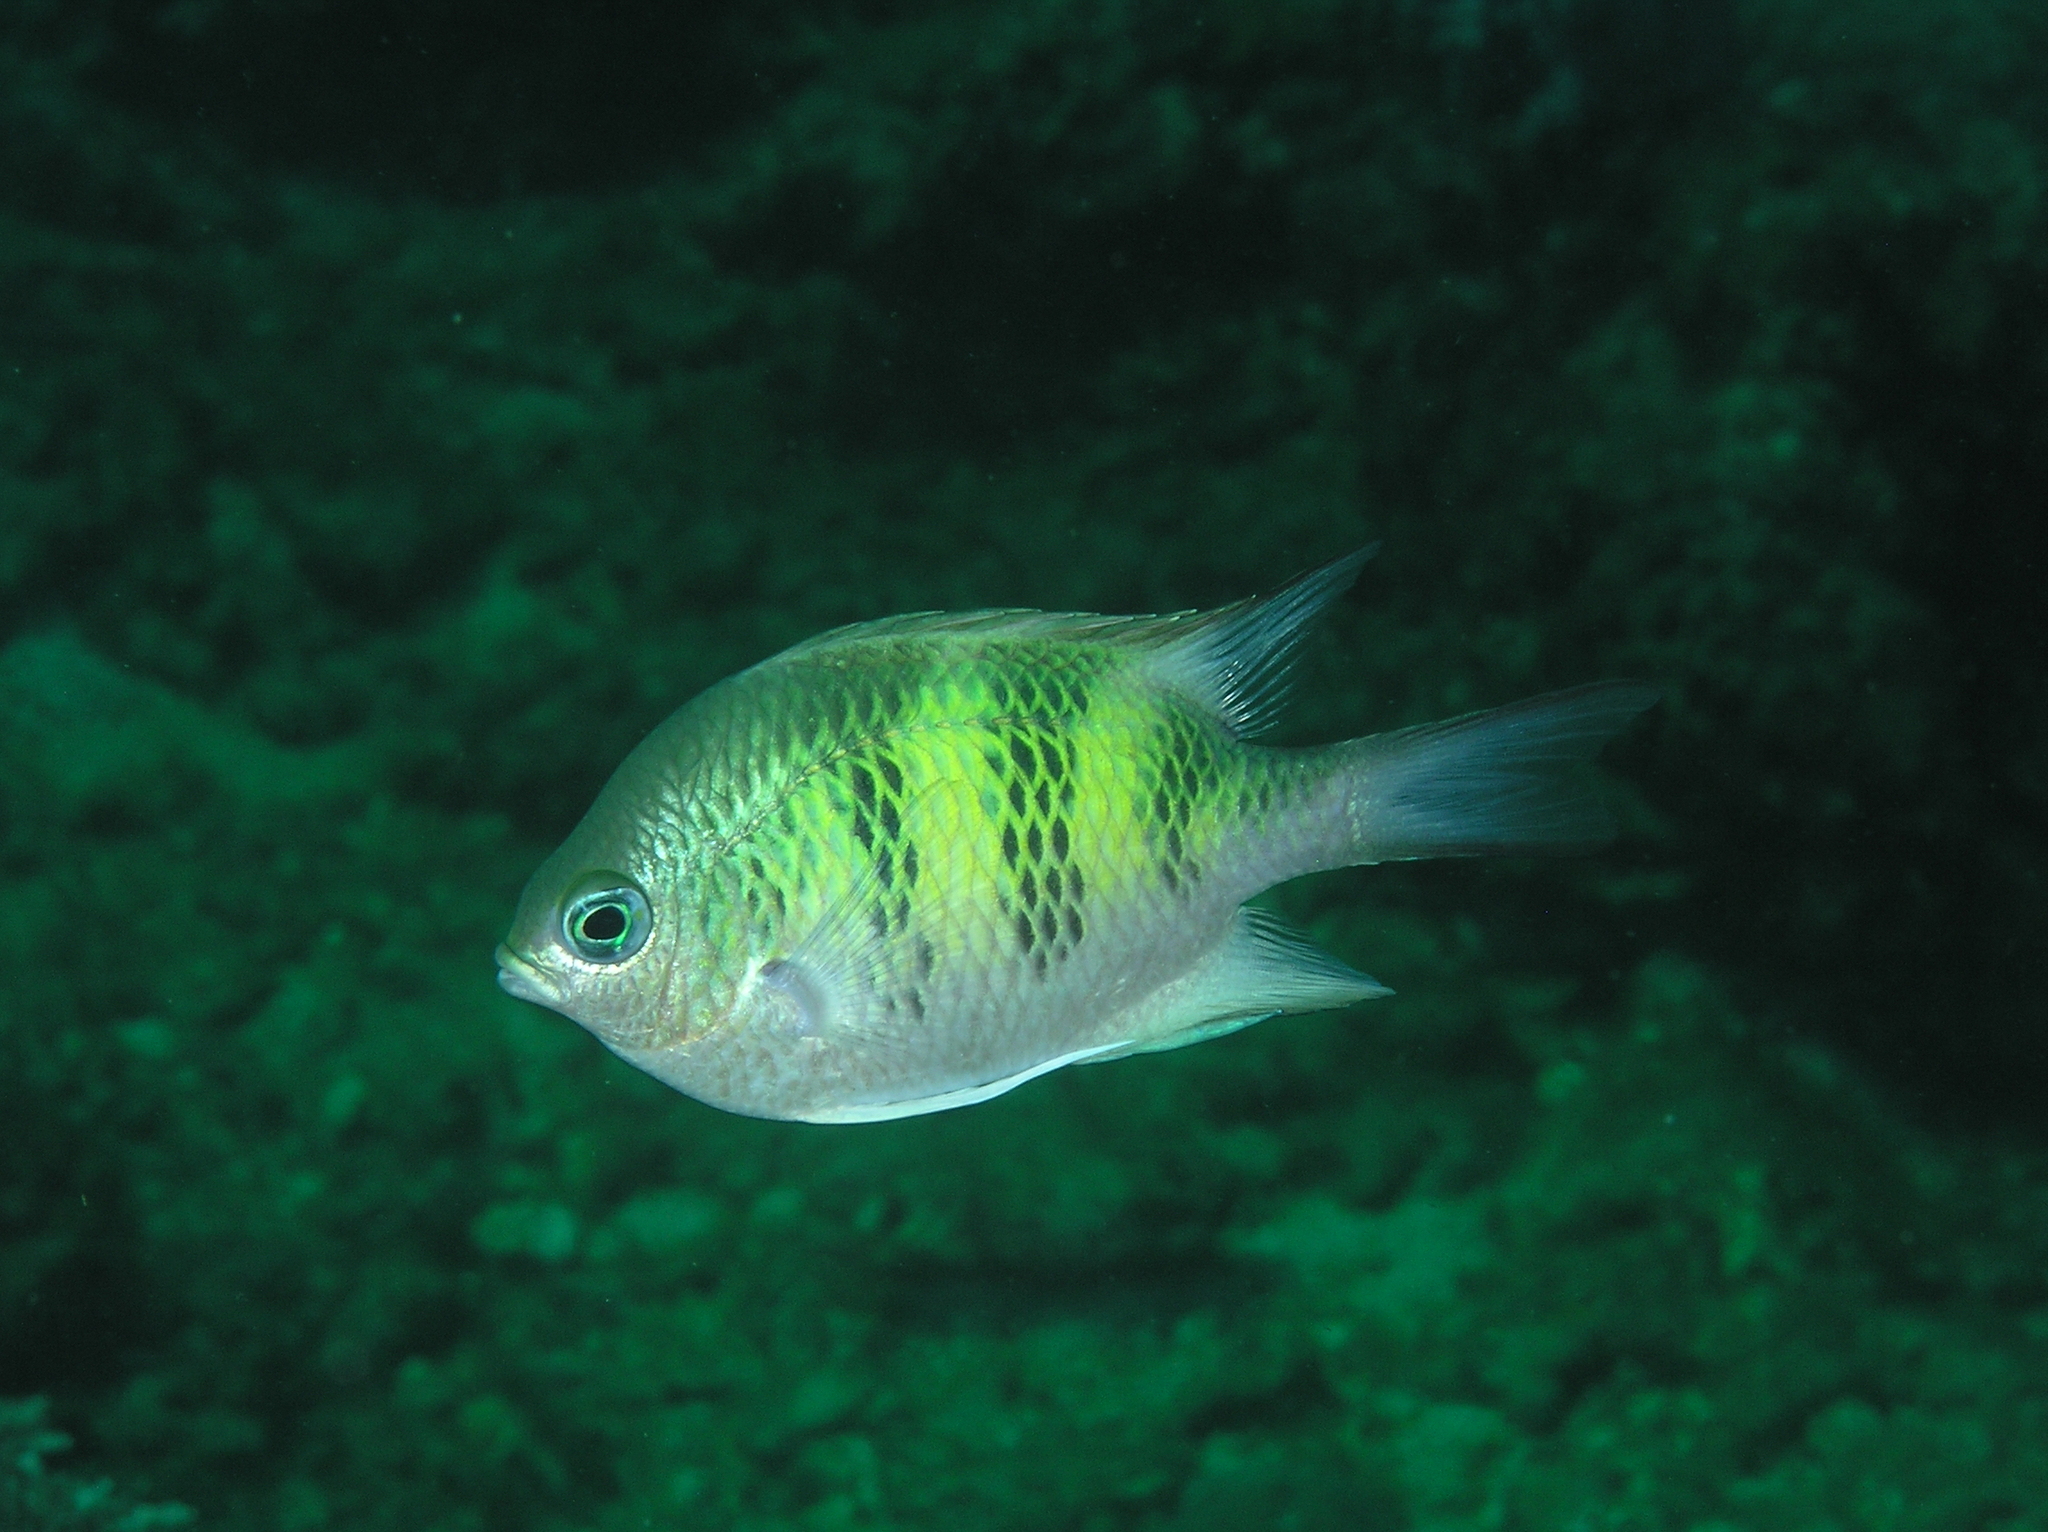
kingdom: Animalia
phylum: Chordata
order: Perciformes
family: Pomacentridae
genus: Amblyglyphidodon
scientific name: Amblyglyphidodon curacao
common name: Staghorn damsel
